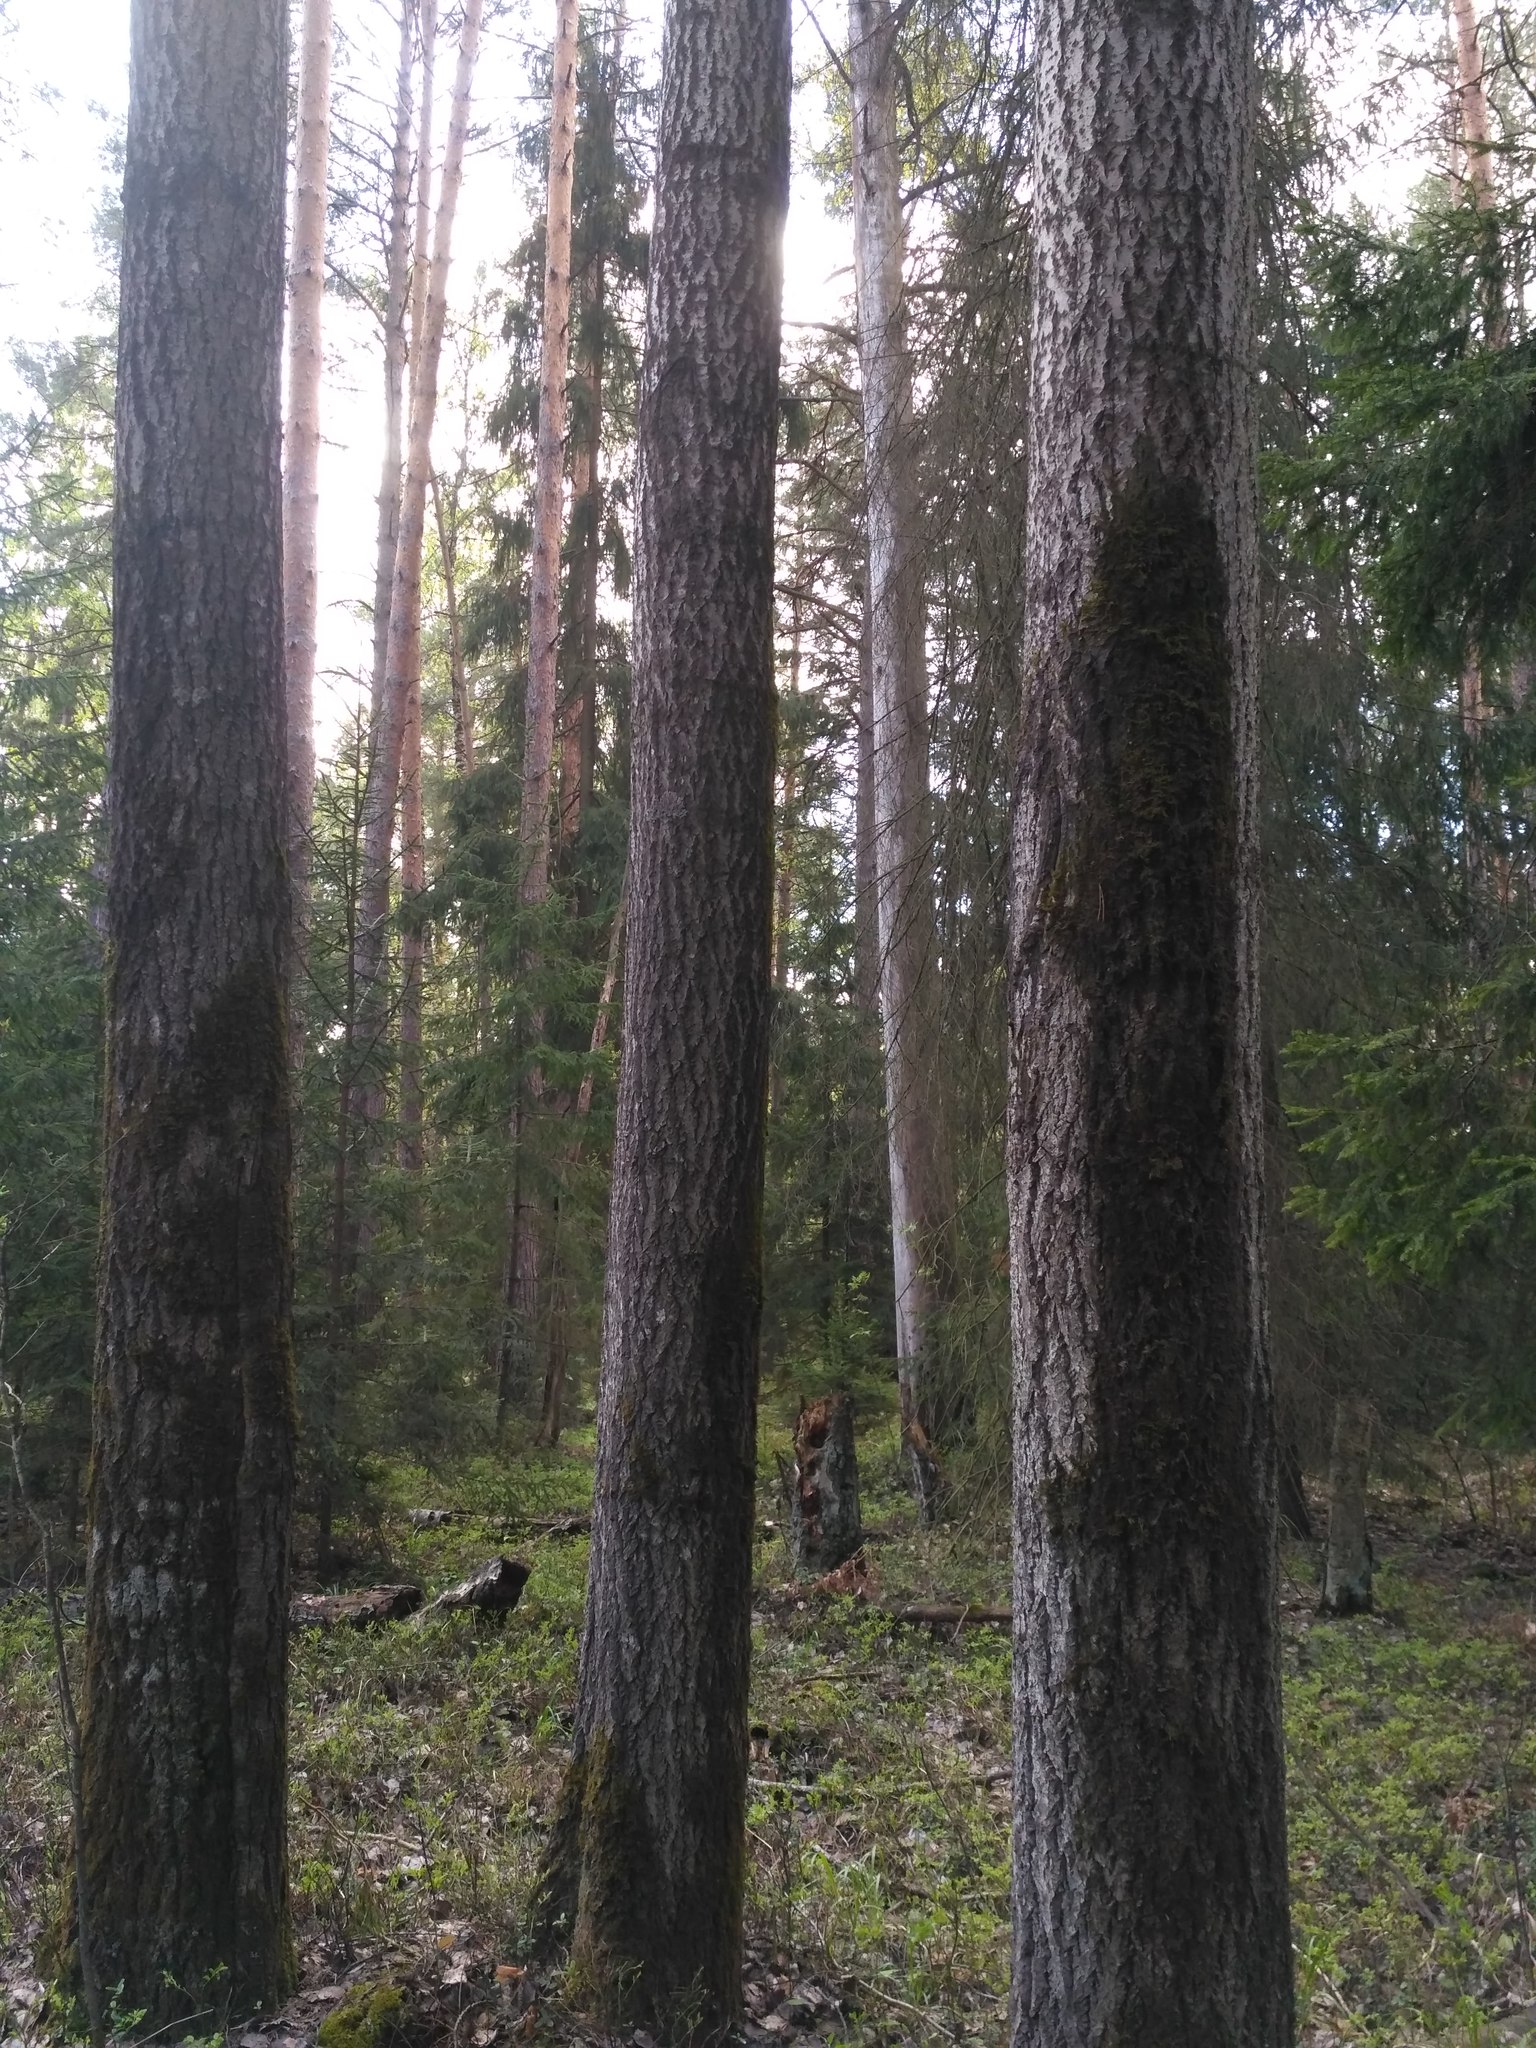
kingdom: Plantae
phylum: Tracheophyta
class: Magnoliopsida
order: Malpighiales
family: Salicaceae
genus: Populus
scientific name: Populus tremula
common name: European aspen
